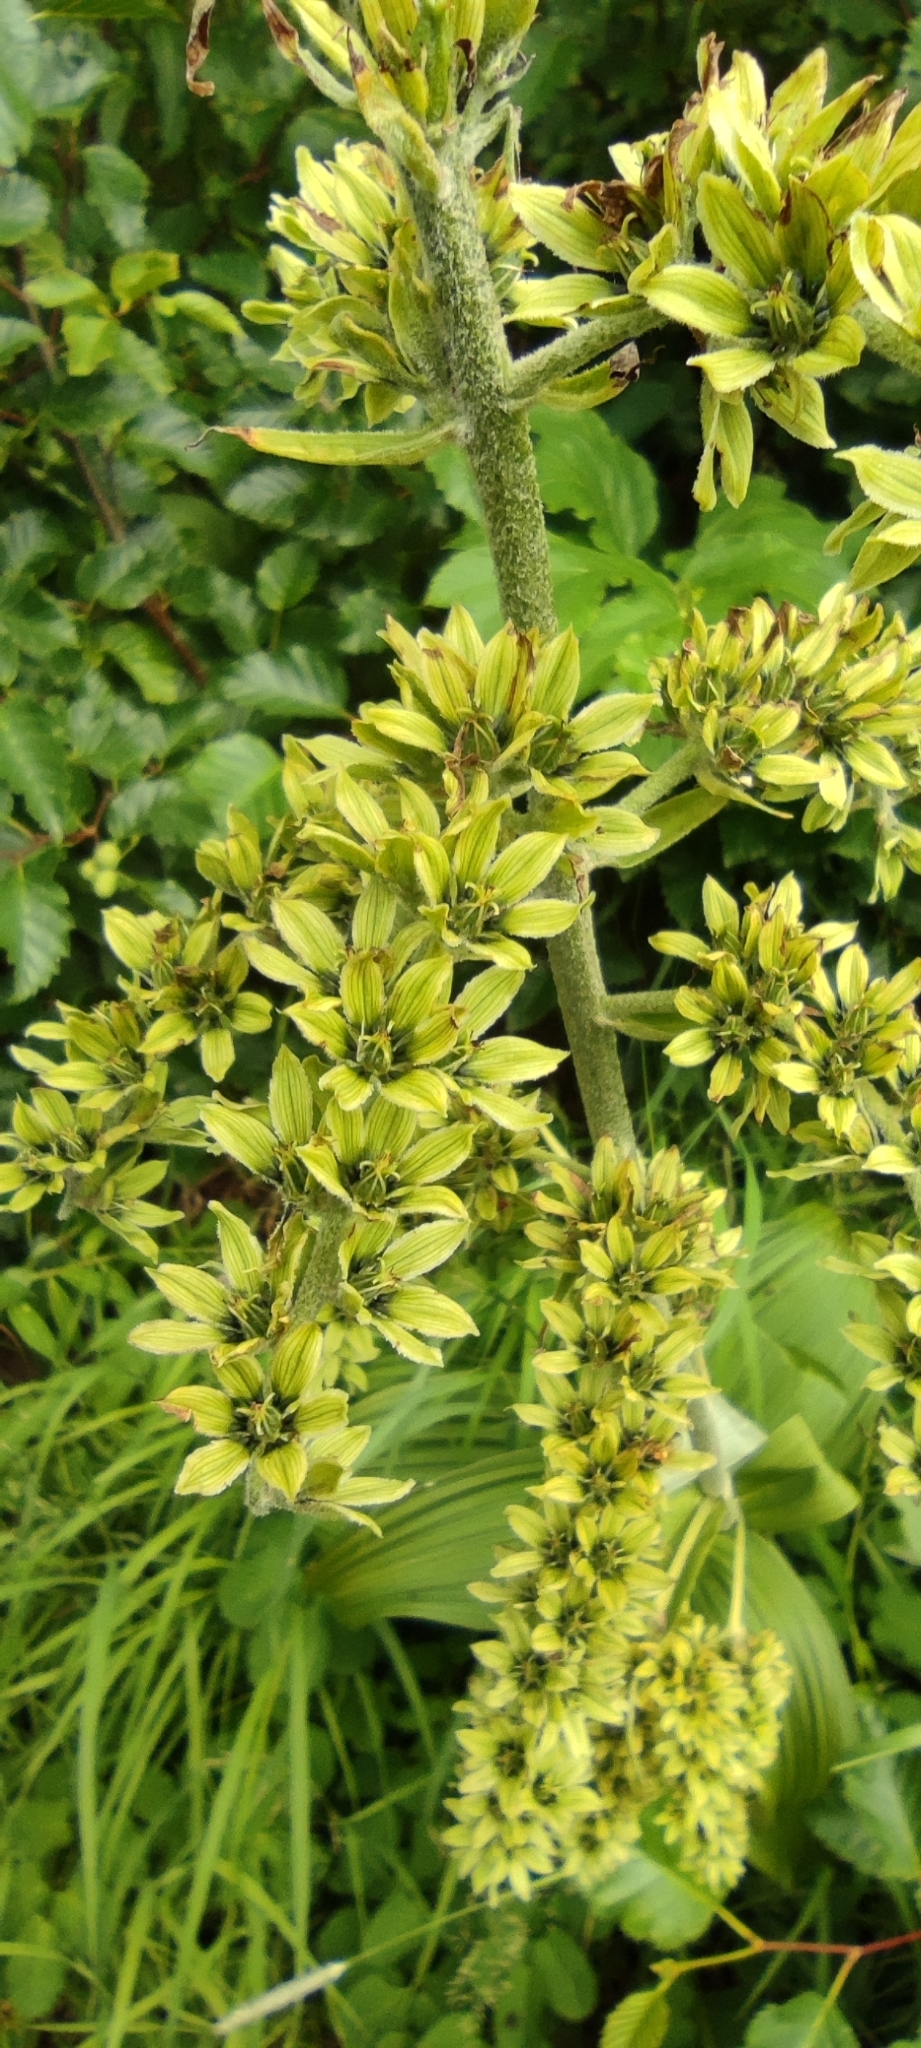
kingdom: Plantae
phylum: Tracheophyta
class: Liliopsida
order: Liliales
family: Melanthiaceae
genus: Veratrum
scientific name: Veratrum viride
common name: American false hellebore
